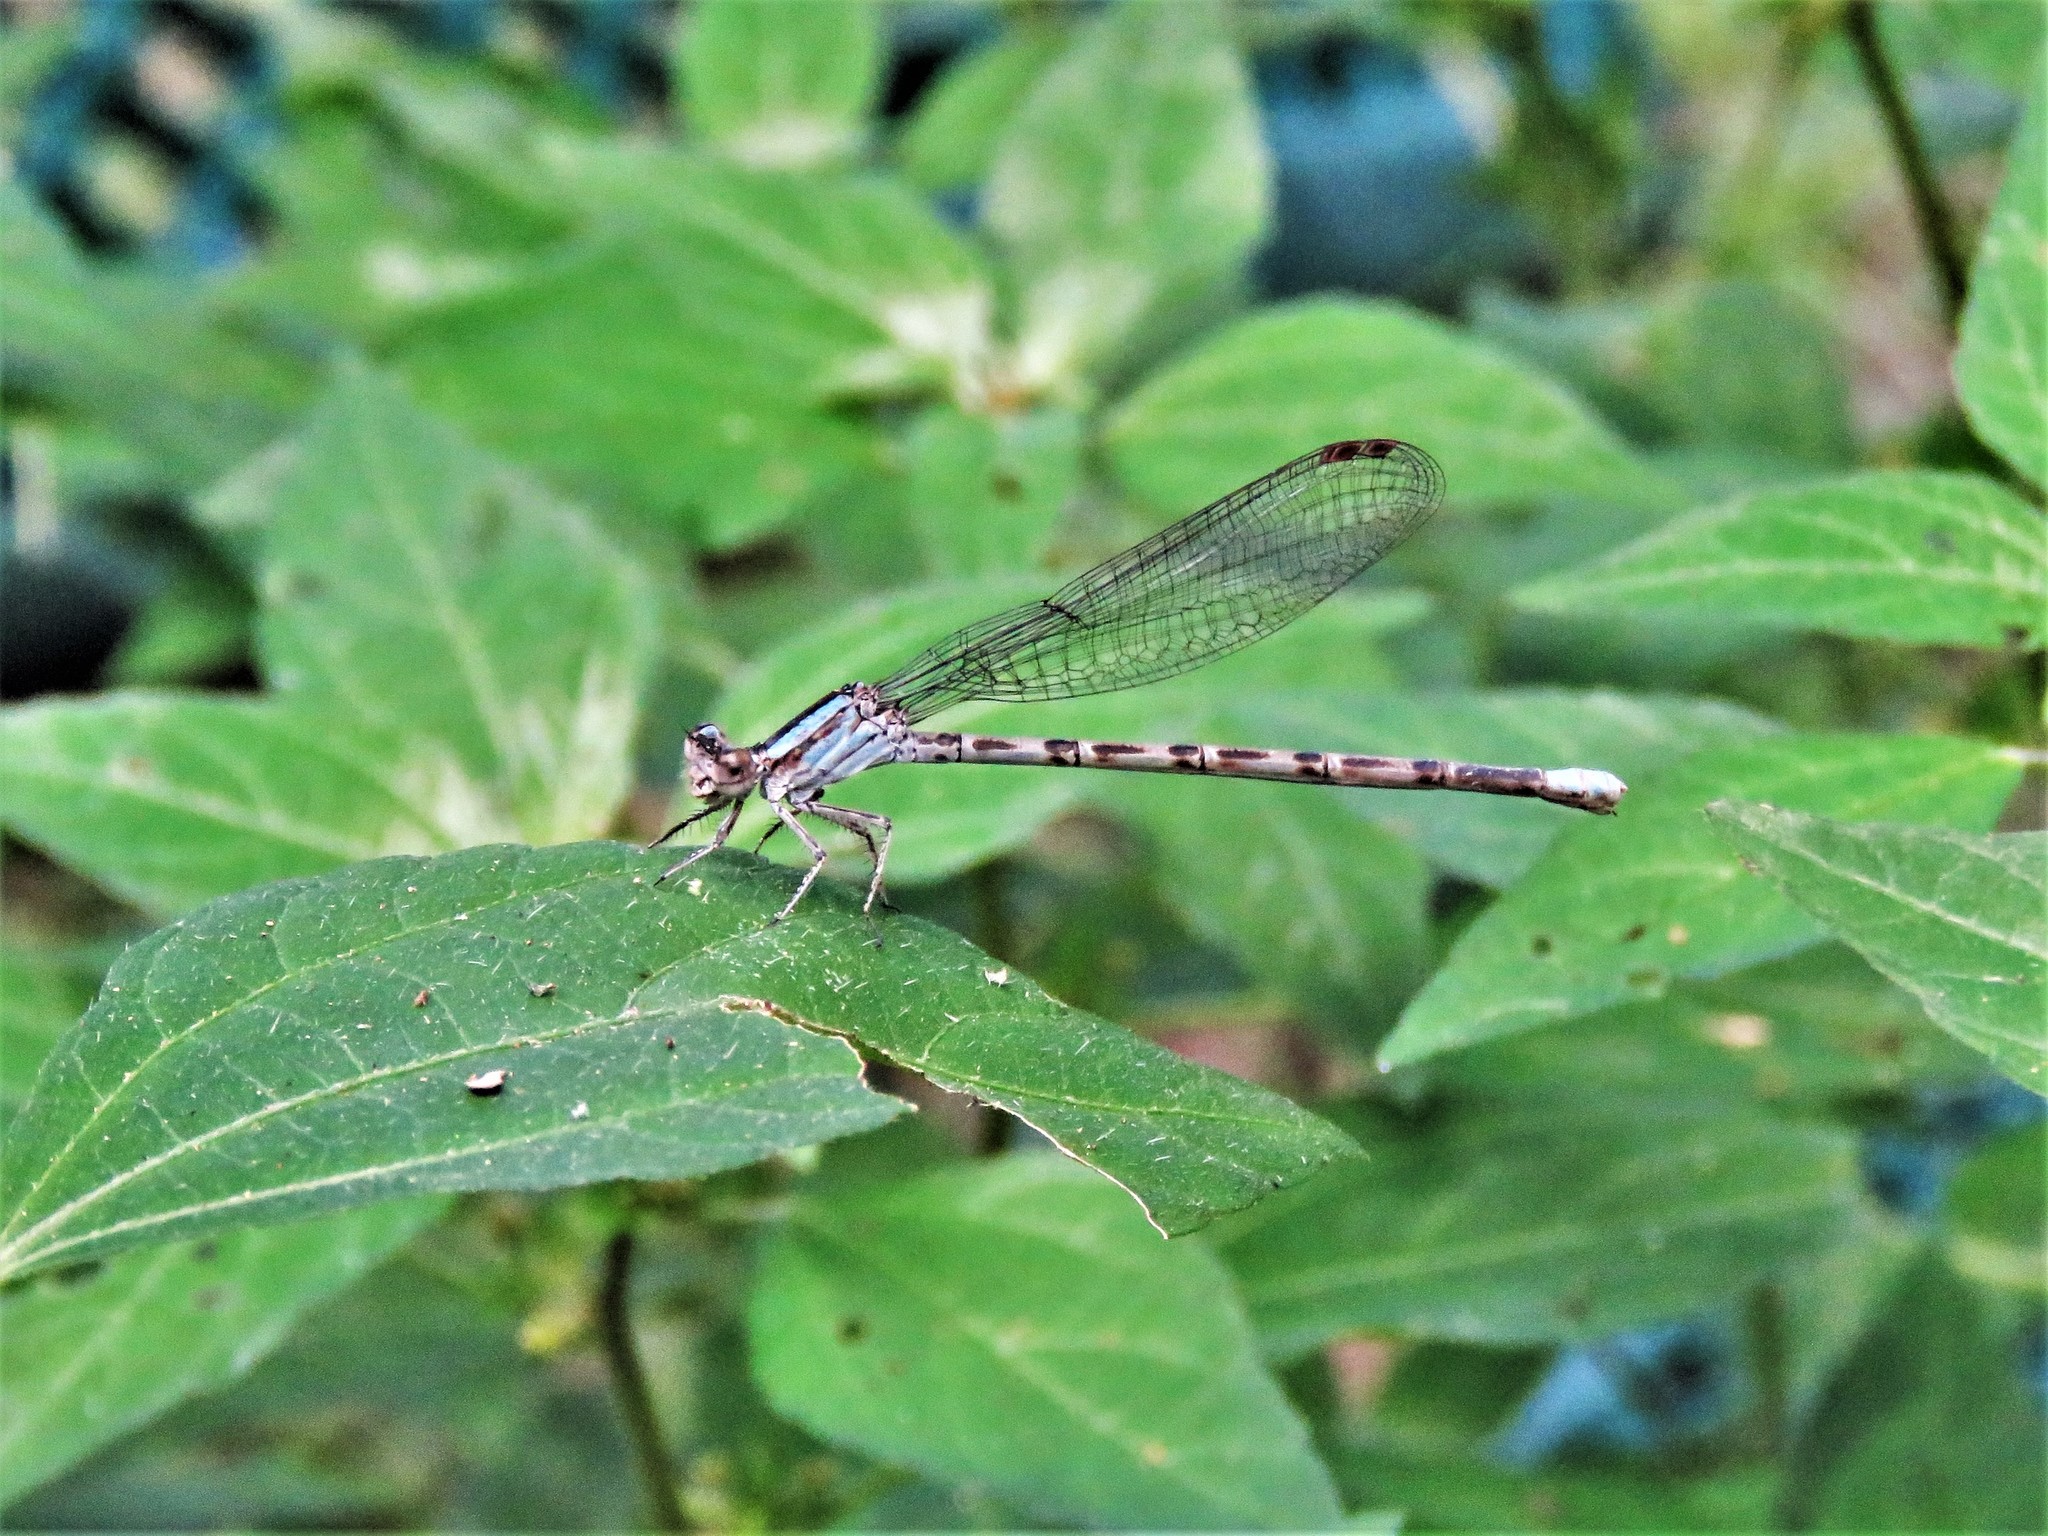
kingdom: Animalia
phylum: Arthropoda
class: Insecta
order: Odonata
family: Coenagrionidae
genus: Argia
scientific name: Argia immunda
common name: Kiowa dancer
